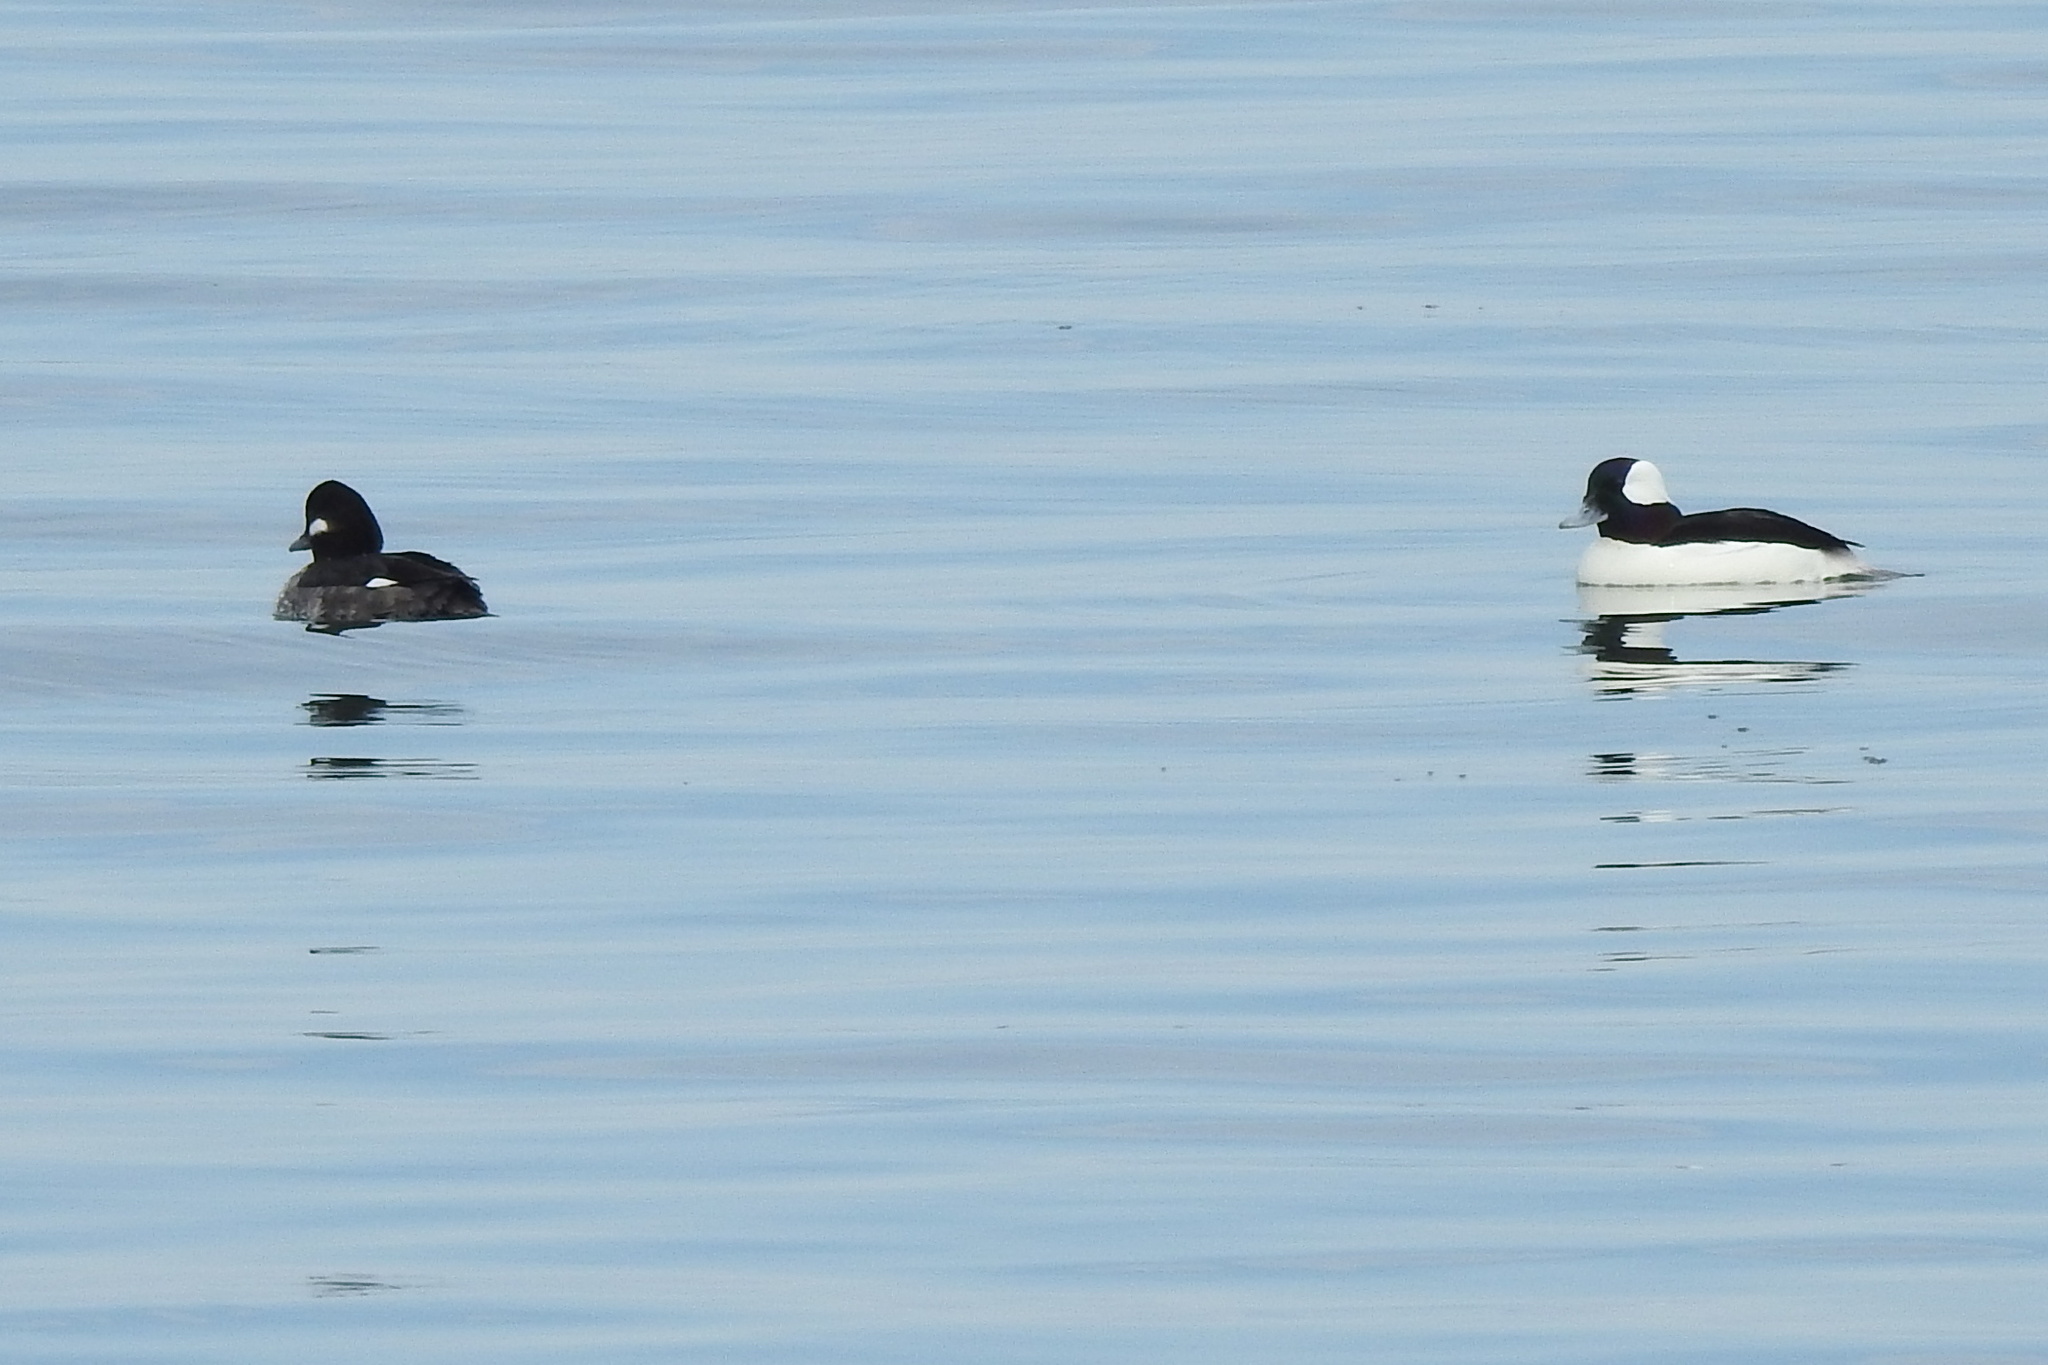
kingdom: Animalia
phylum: Chordata
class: Aves
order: Anseriformes
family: Anatidae
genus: Bucephala
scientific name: Bucephala albeola
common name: Bufflehead
